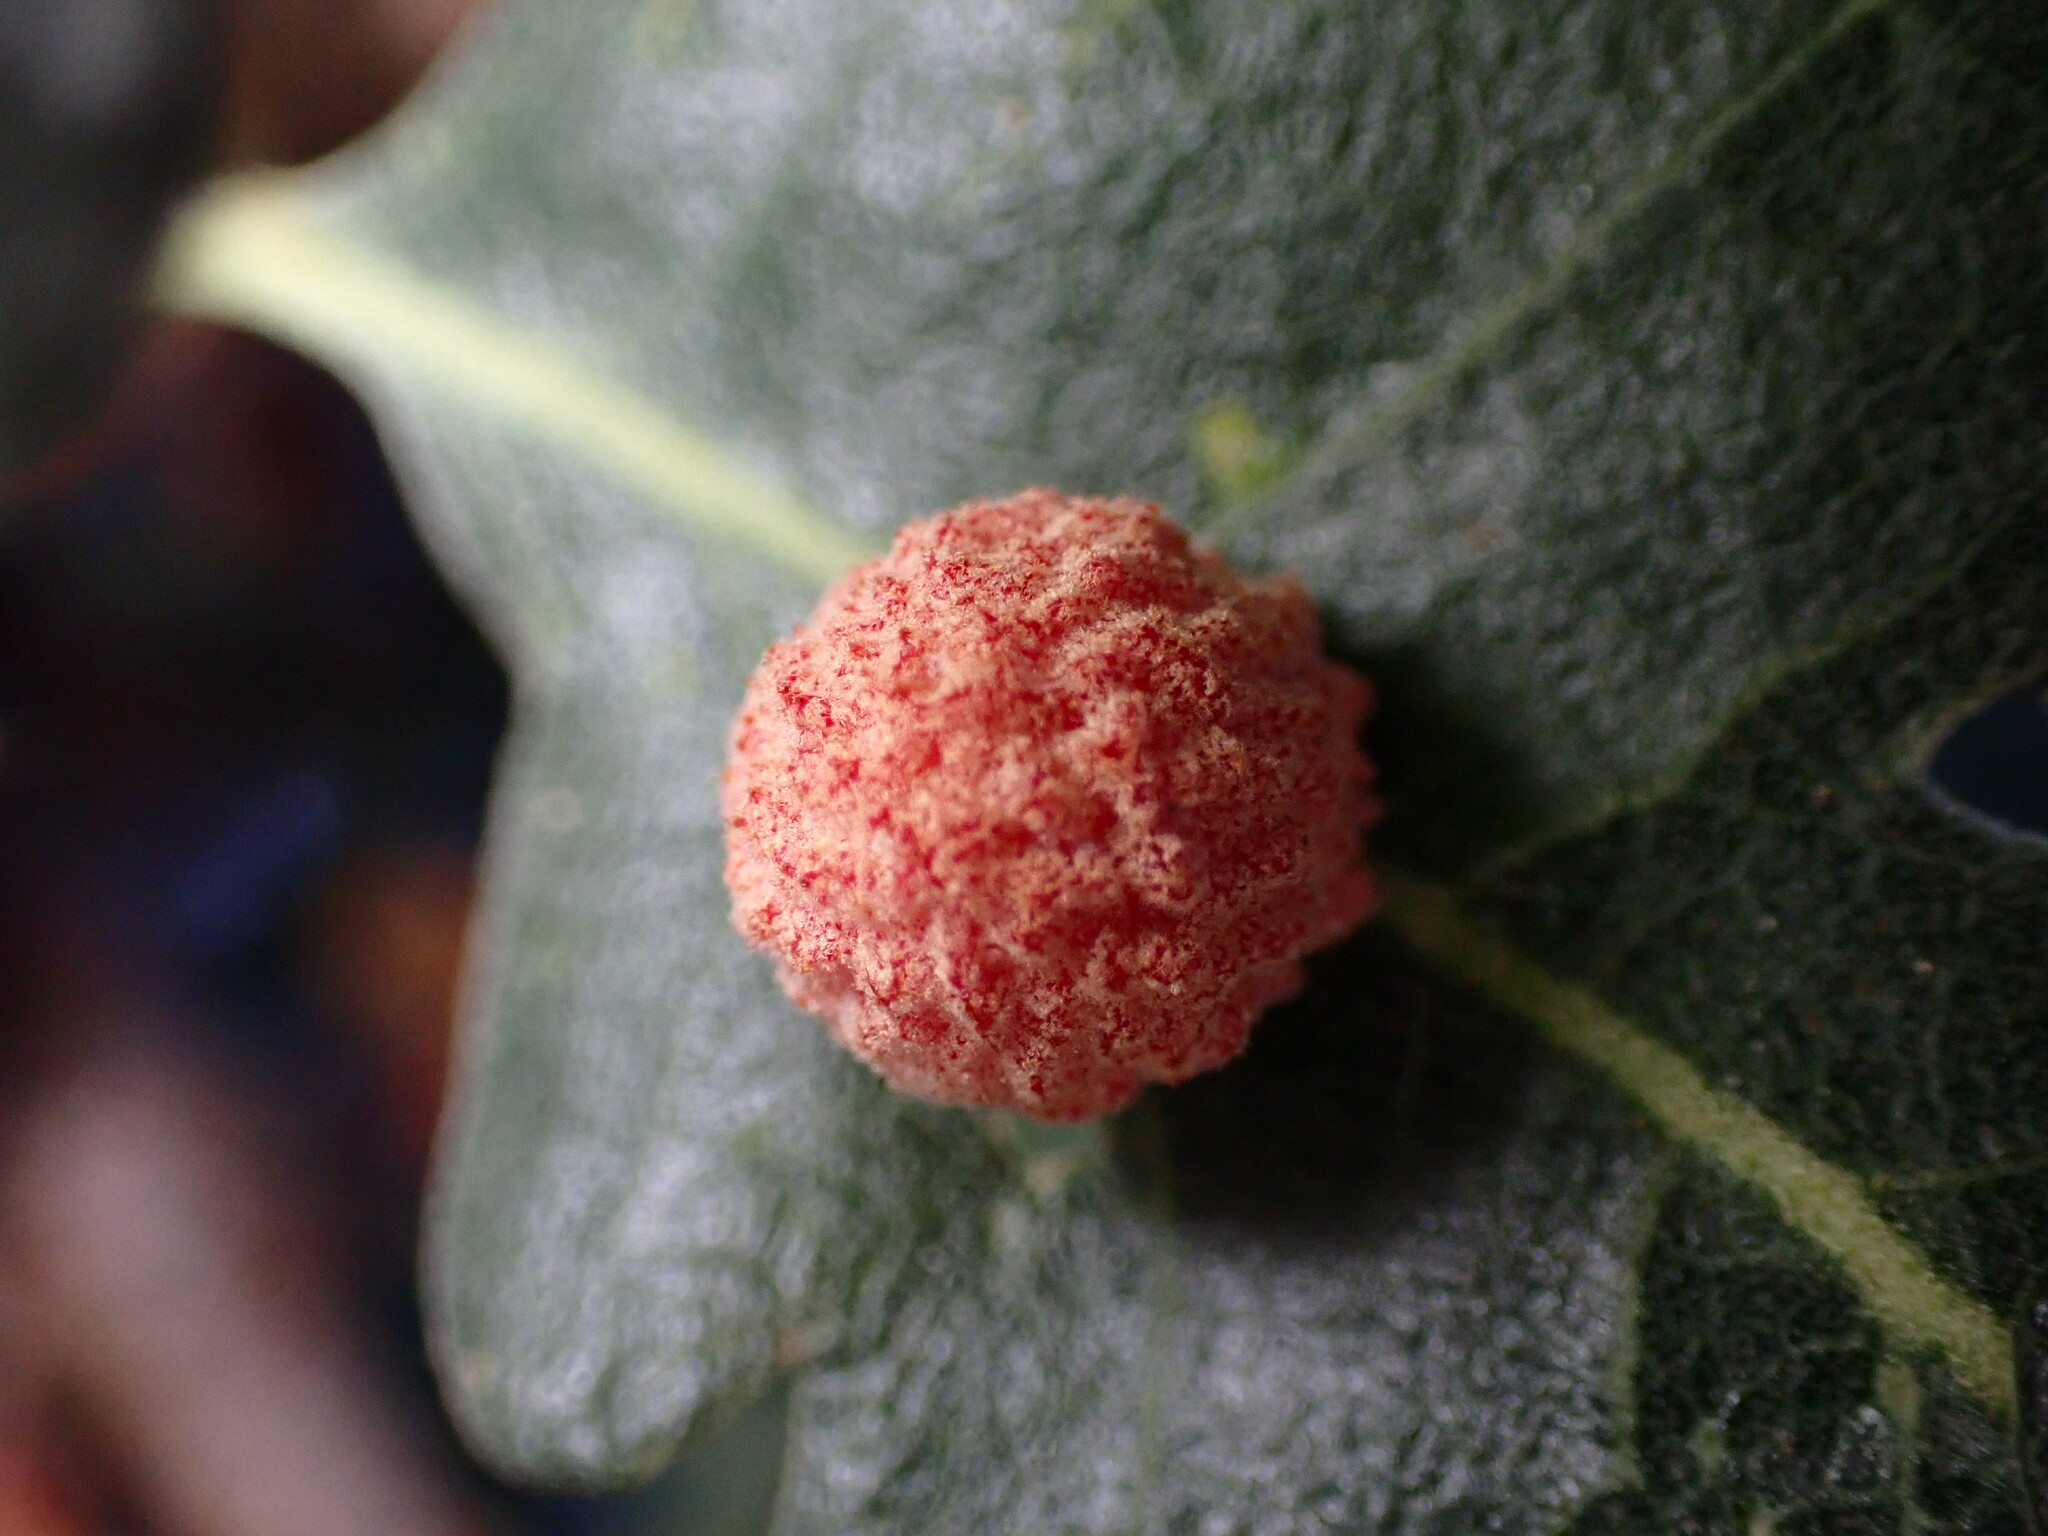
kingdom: Animalia
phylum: Arthropoda
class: Insecta
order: Hymenoptera
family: Cynipidae
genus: Cynips
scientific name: Cynips conspicua
